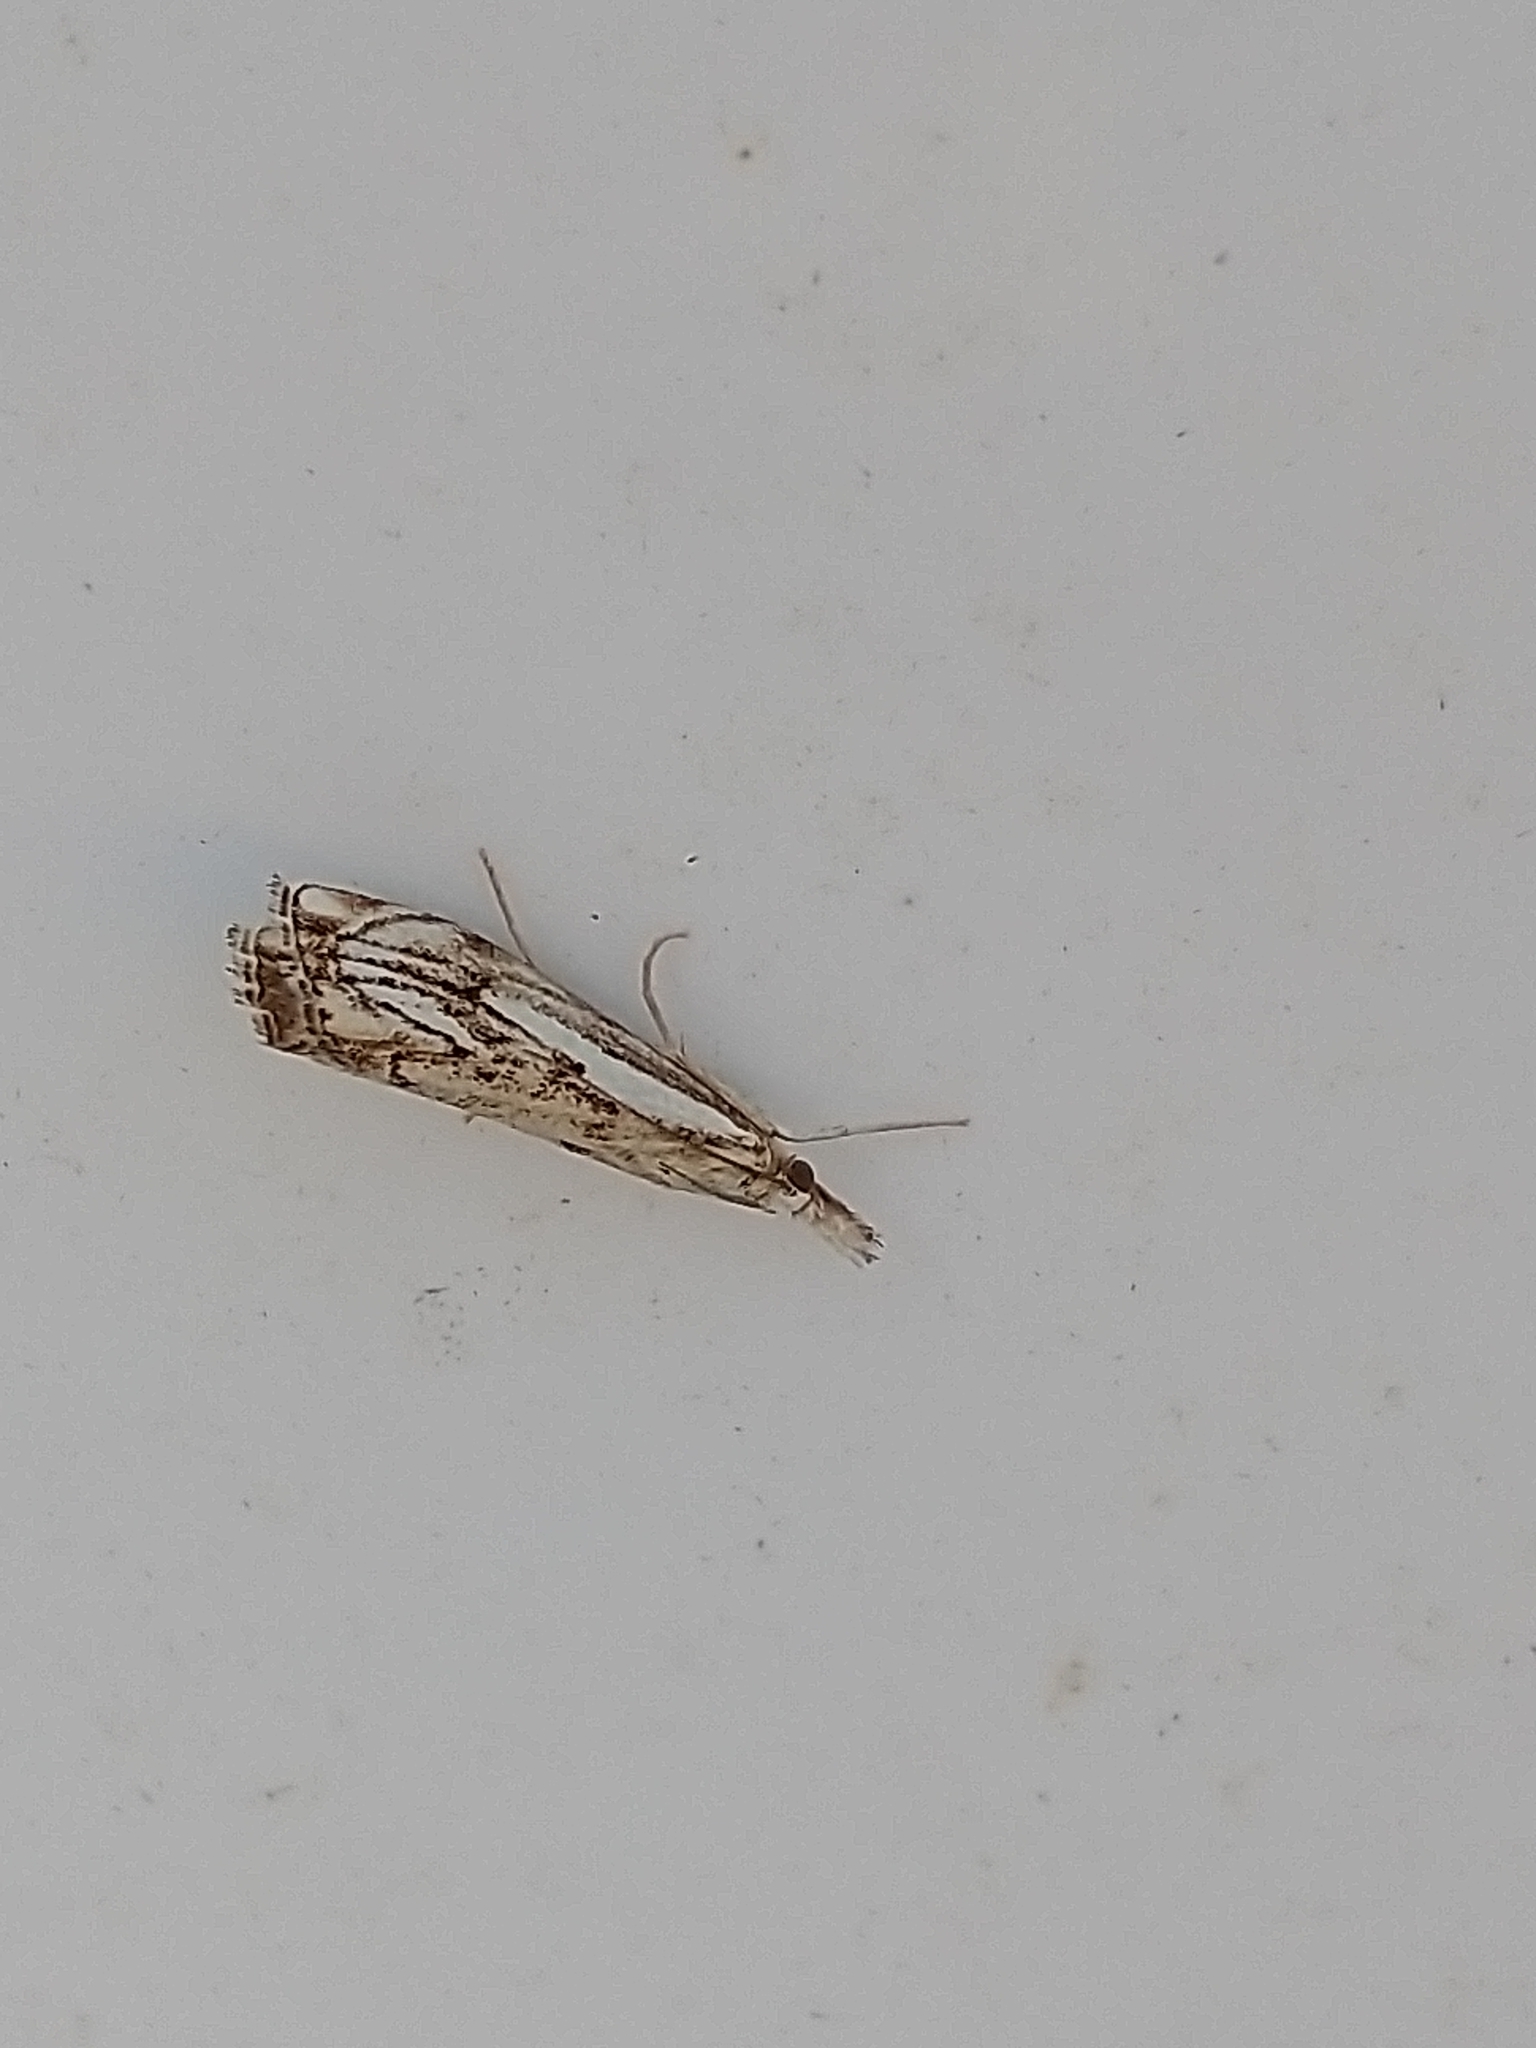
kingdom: Animalia
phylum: Arthropoda
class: Insecta
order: Lepidoptera
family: Crambidae
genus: Catoptria
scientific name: Catoptria falsella
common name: Chequered grass-veneer
